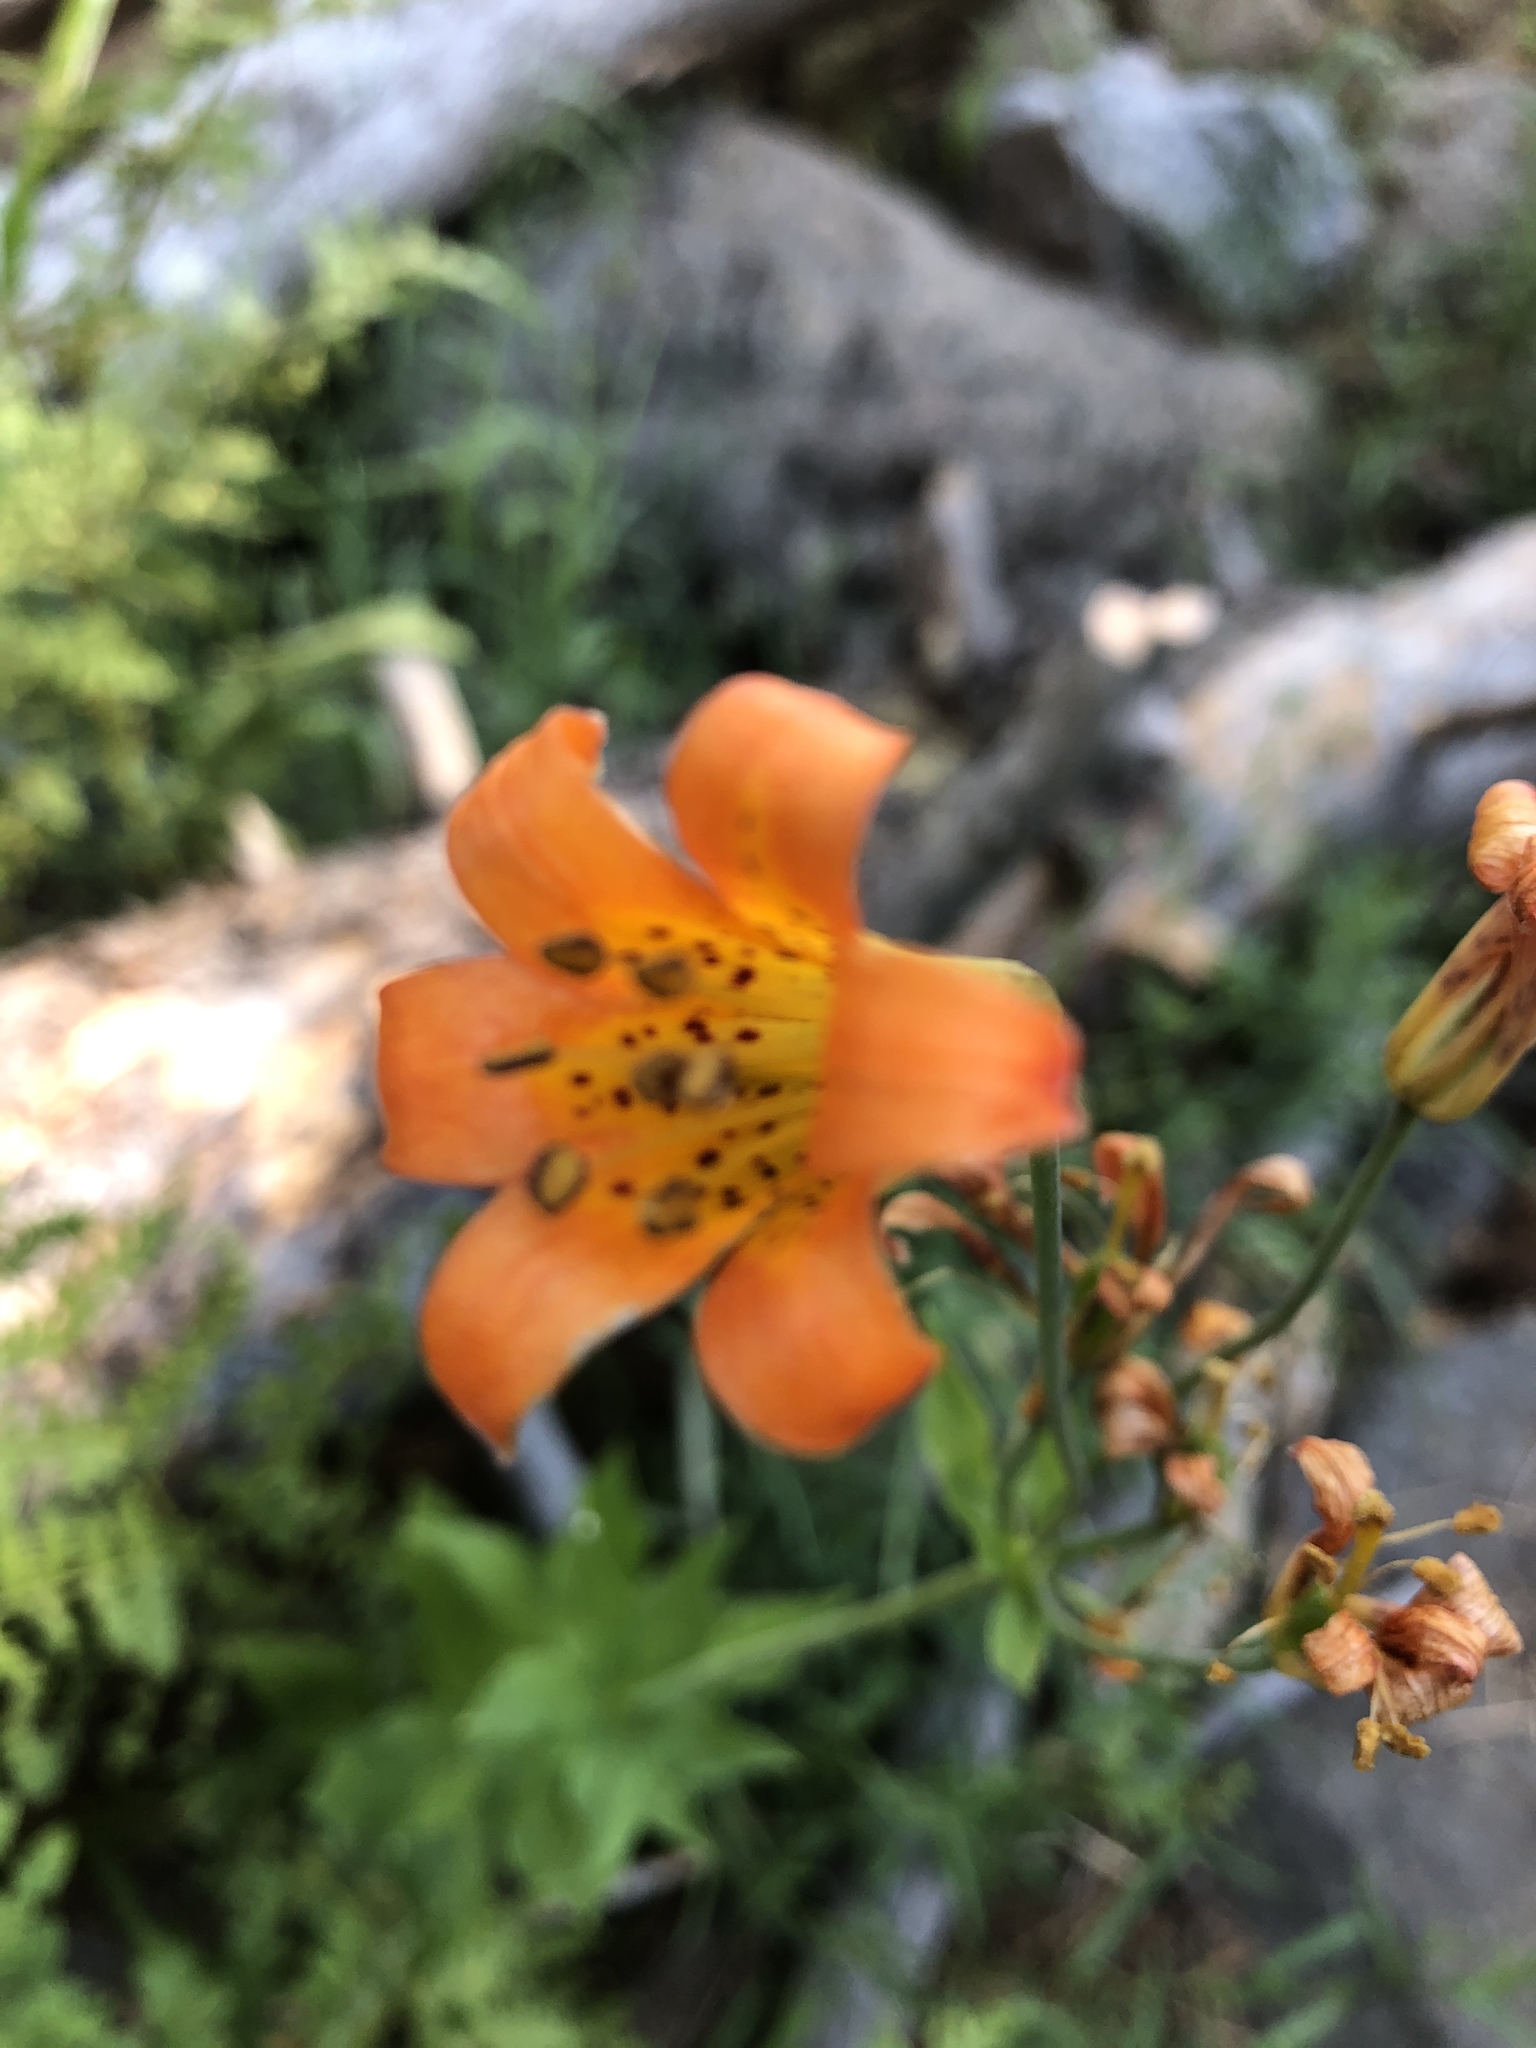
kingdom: Plantae
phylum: Tracheophyta
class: Liliopsida
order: Liliales
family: Liliaceae
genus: Lilium
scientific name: Lilium parvum
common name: Alpine lily
